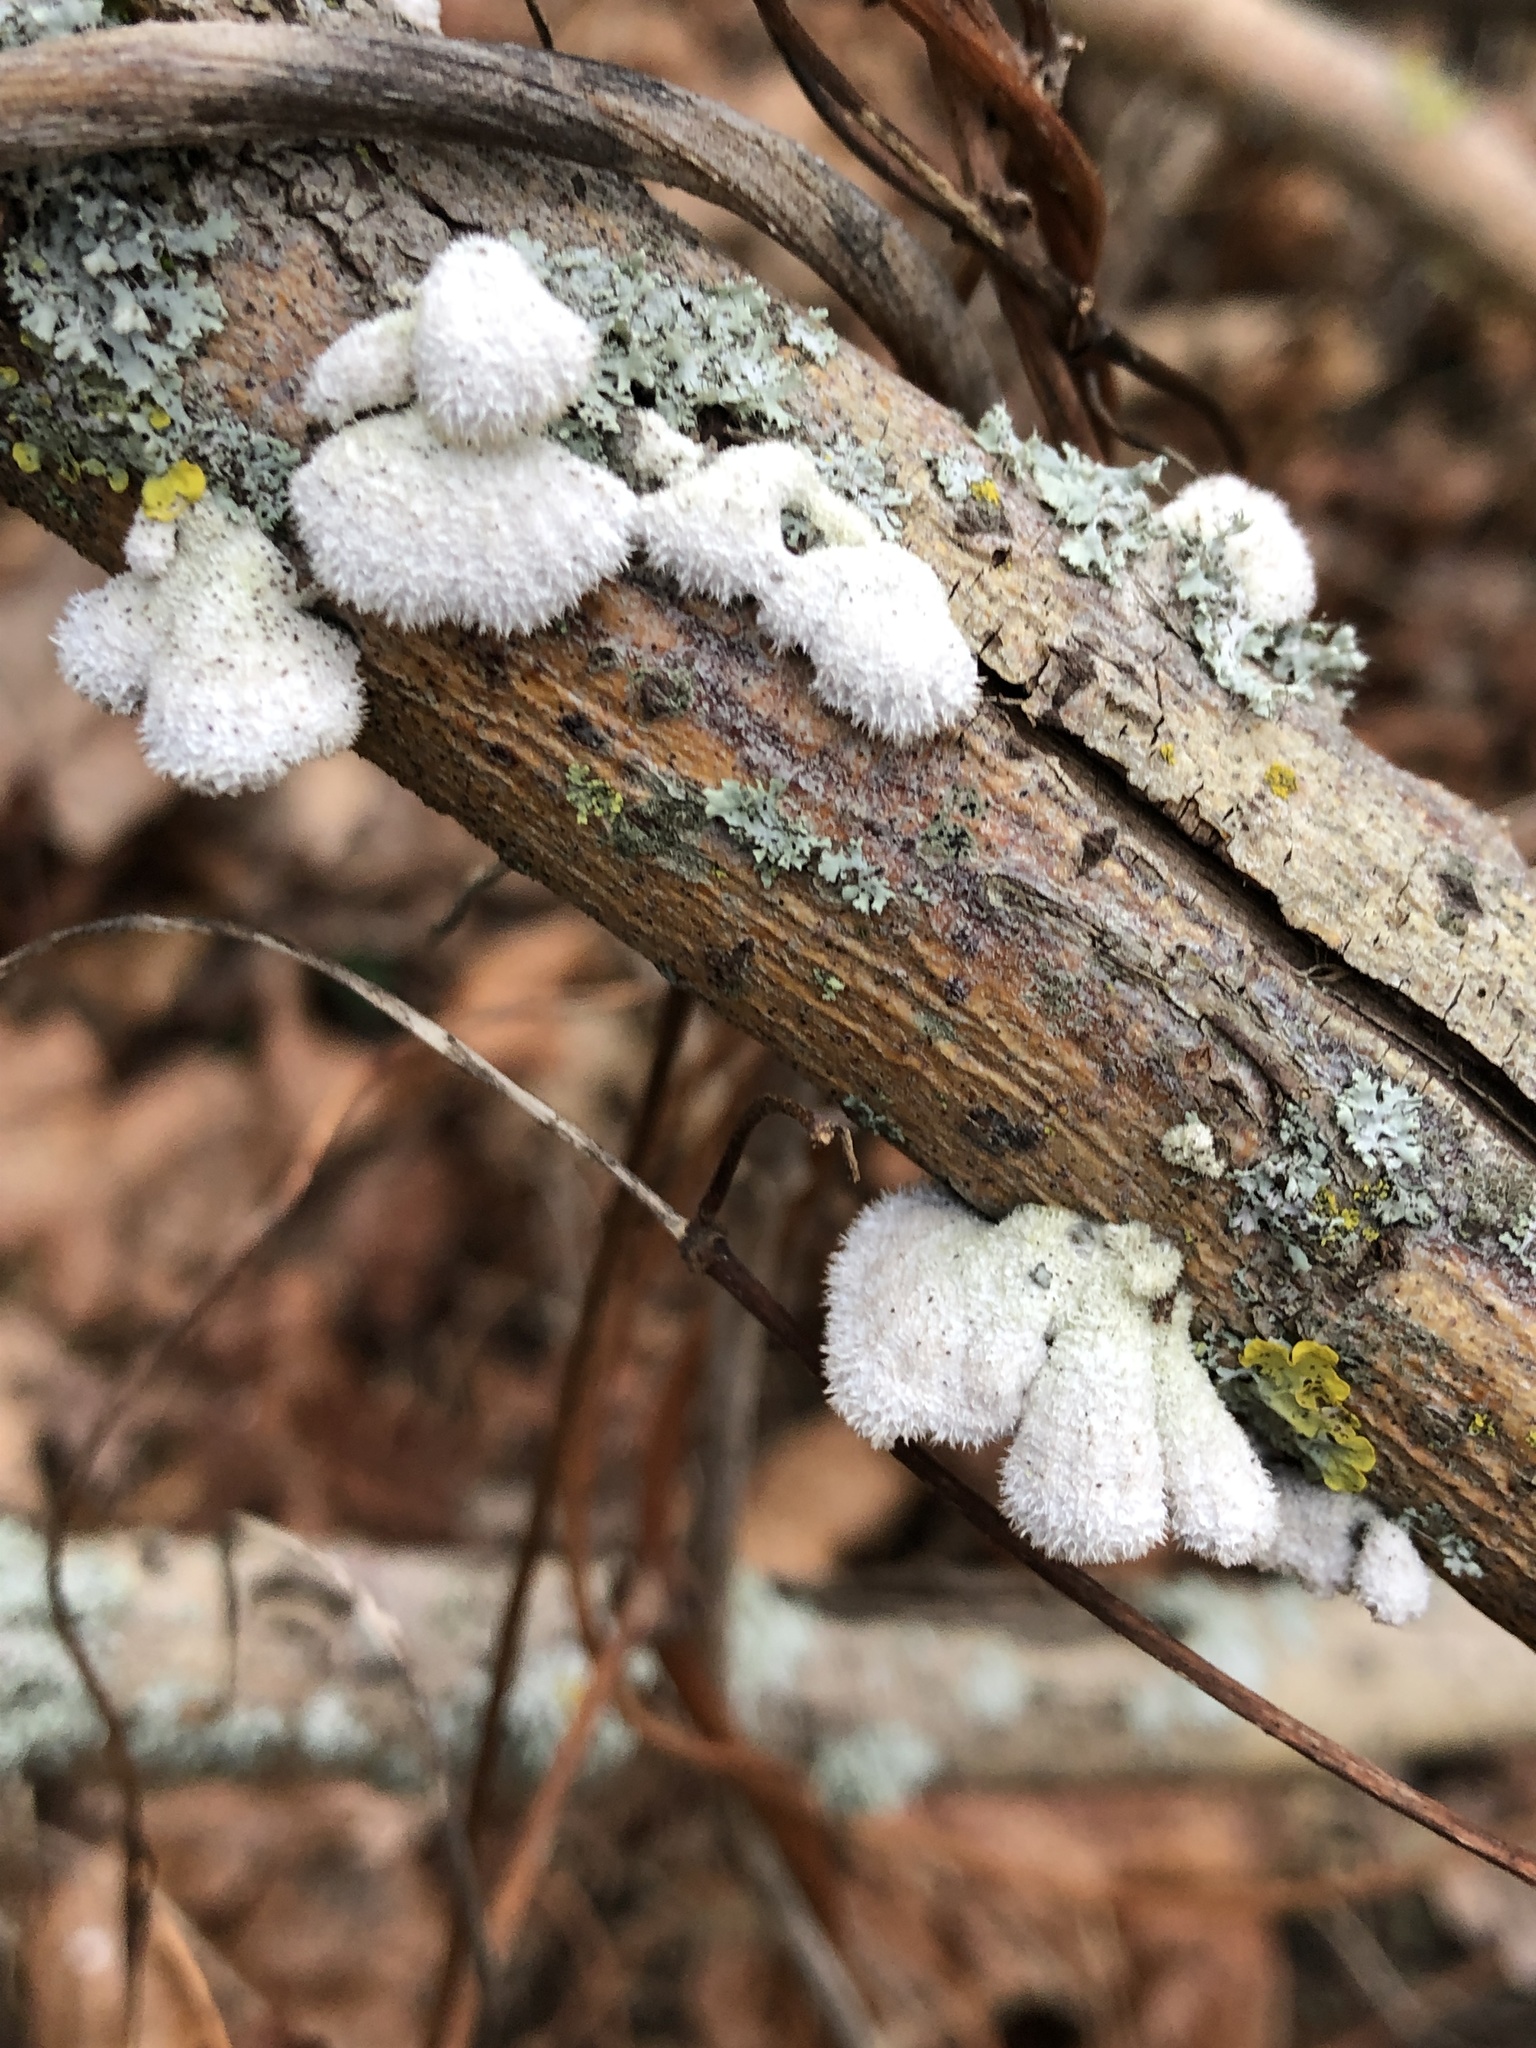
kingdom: Fungi
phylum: Basidiomycota
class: Agaricomycetes
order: Agaricales
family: Schizophyllaceae
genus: Schizophyllum
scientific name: Schizophyllum commune
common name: Common porecrust
